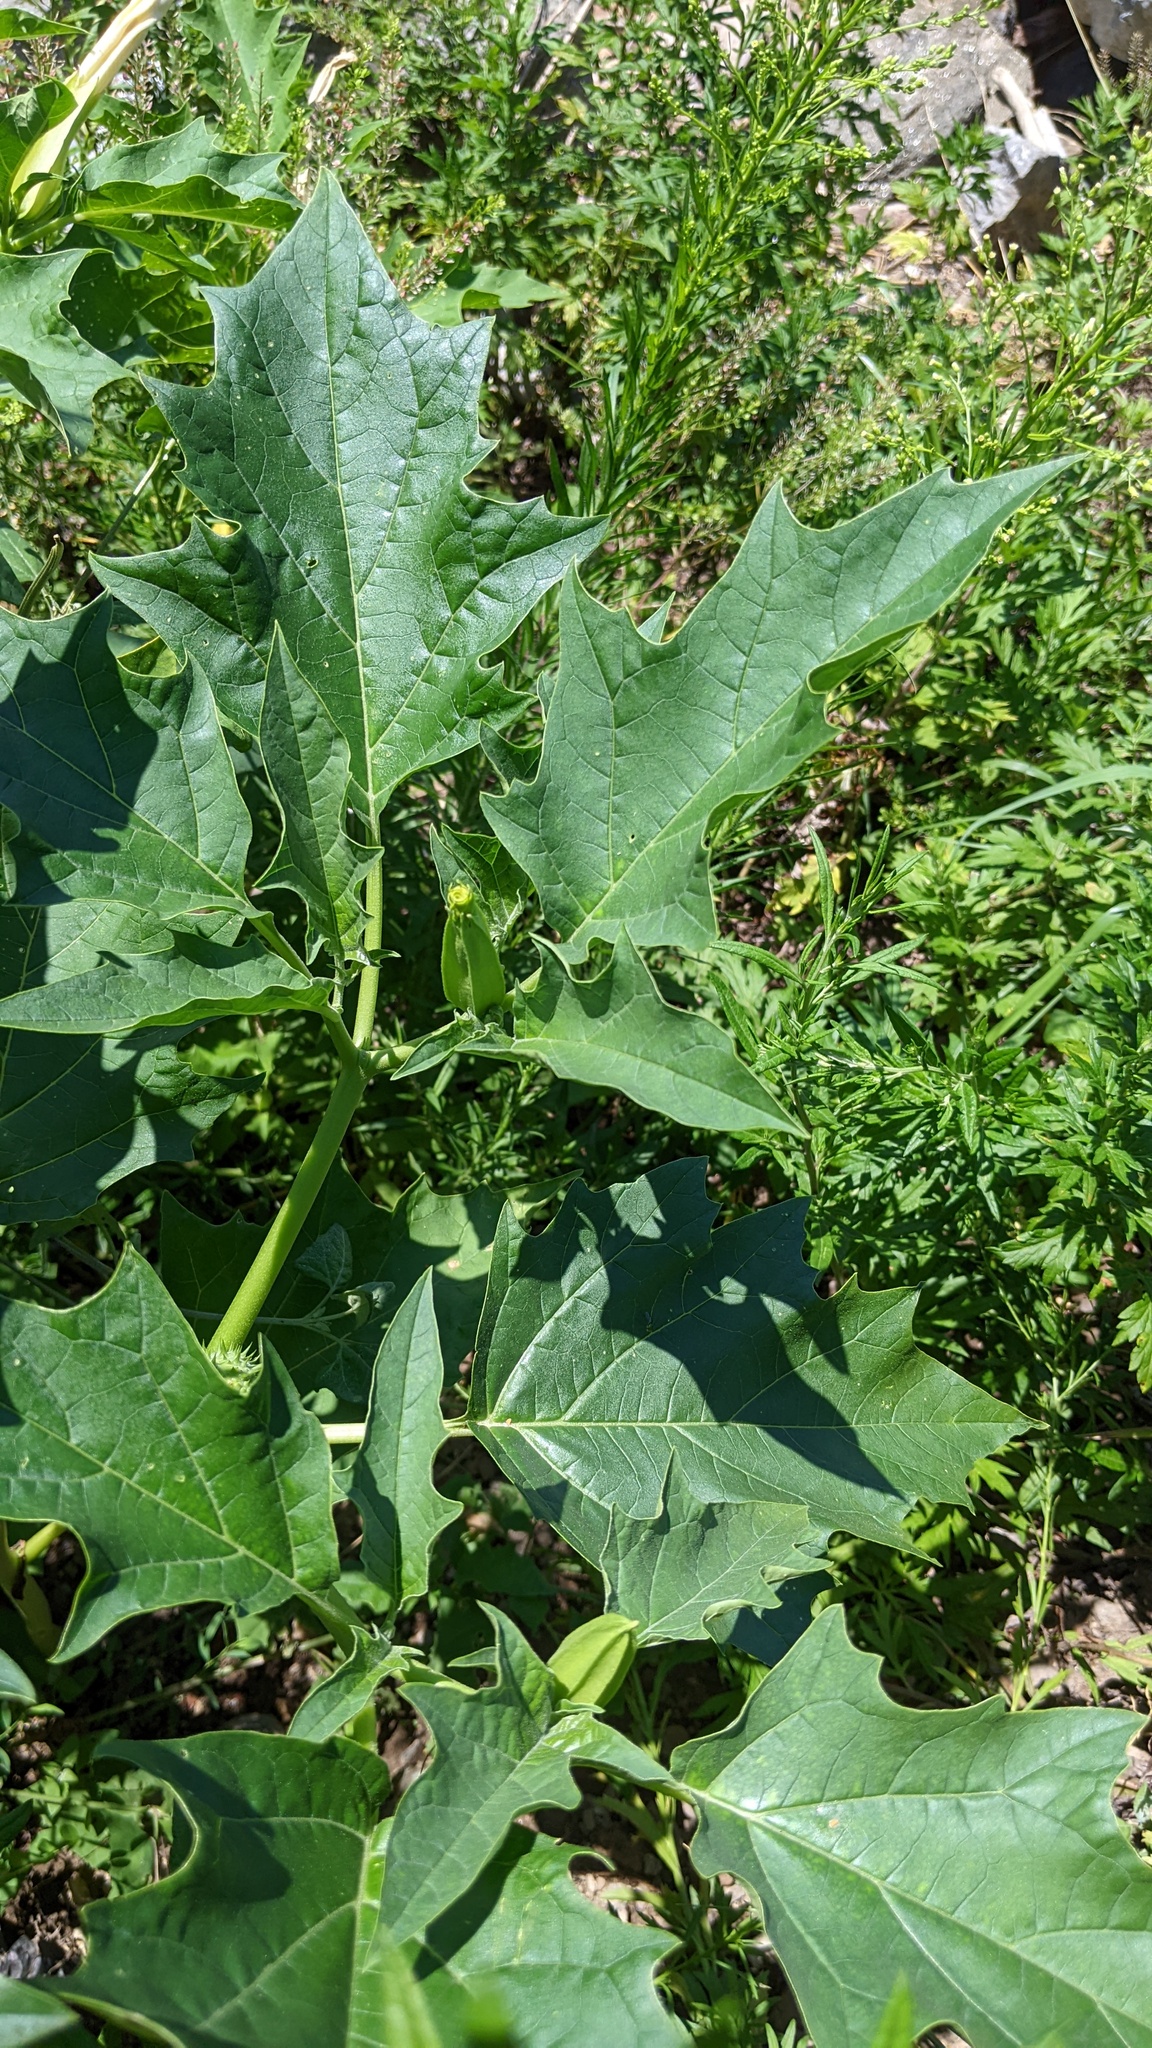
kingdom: Plantae
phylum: Tracheophyta
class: Magnoliopsida
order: Solanales
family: Solanaceae
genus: Datura
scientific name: Datura stramonium
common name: Thorn-apple
